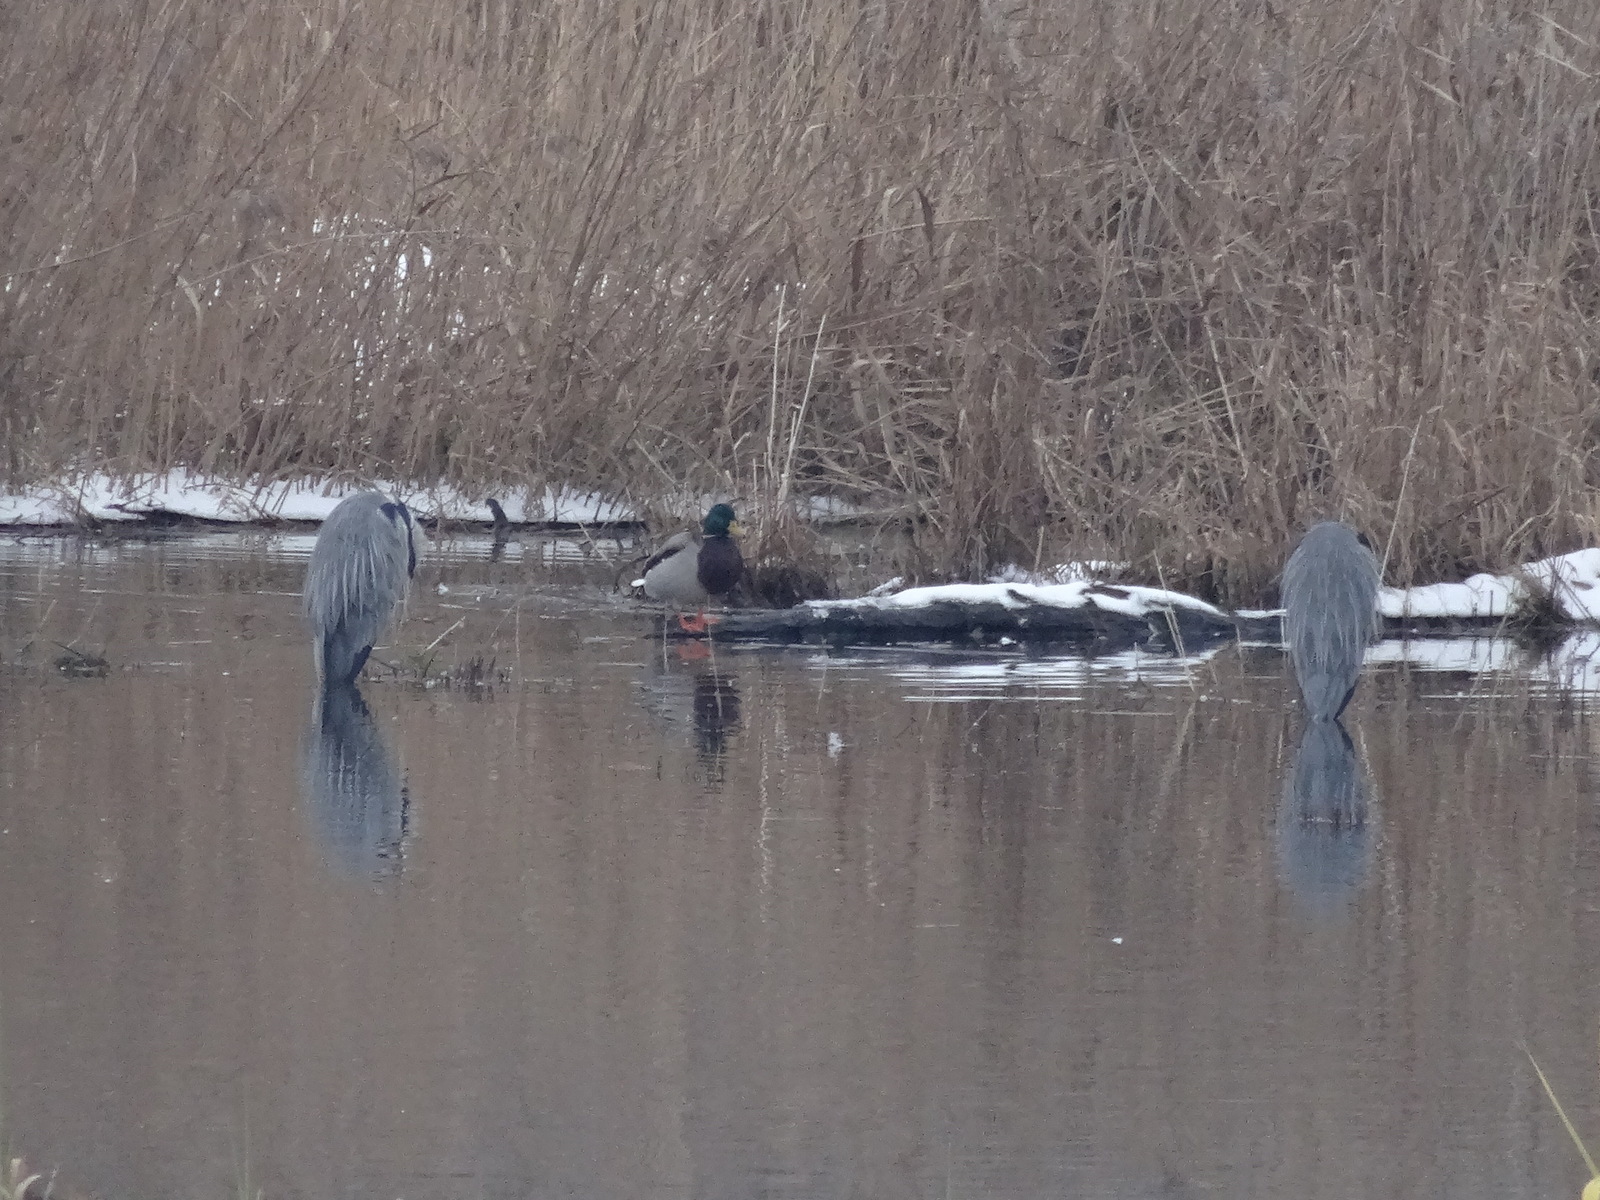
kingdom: Animalia
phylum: Chordata
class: Aves
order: Pelecaniformes
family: Ardeidae
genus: Ardea
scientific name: Ardea cinerea
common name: Grey heron
